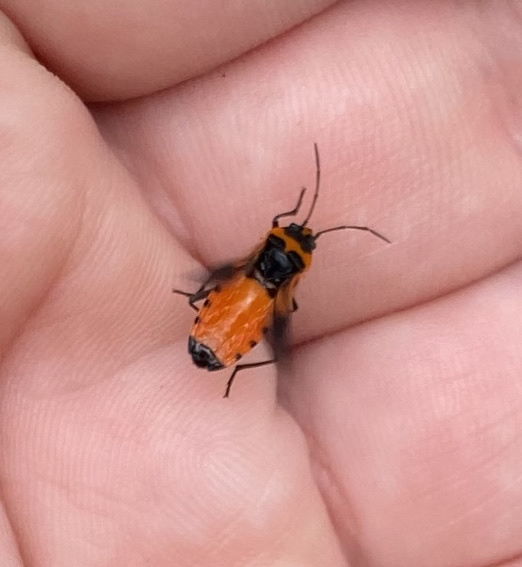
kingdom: Animalia
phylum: Arthropoda
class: Insecta
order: Hemiptera
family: Lygaeidae
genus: Lygaeus
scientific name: Lygaeus turcicus
